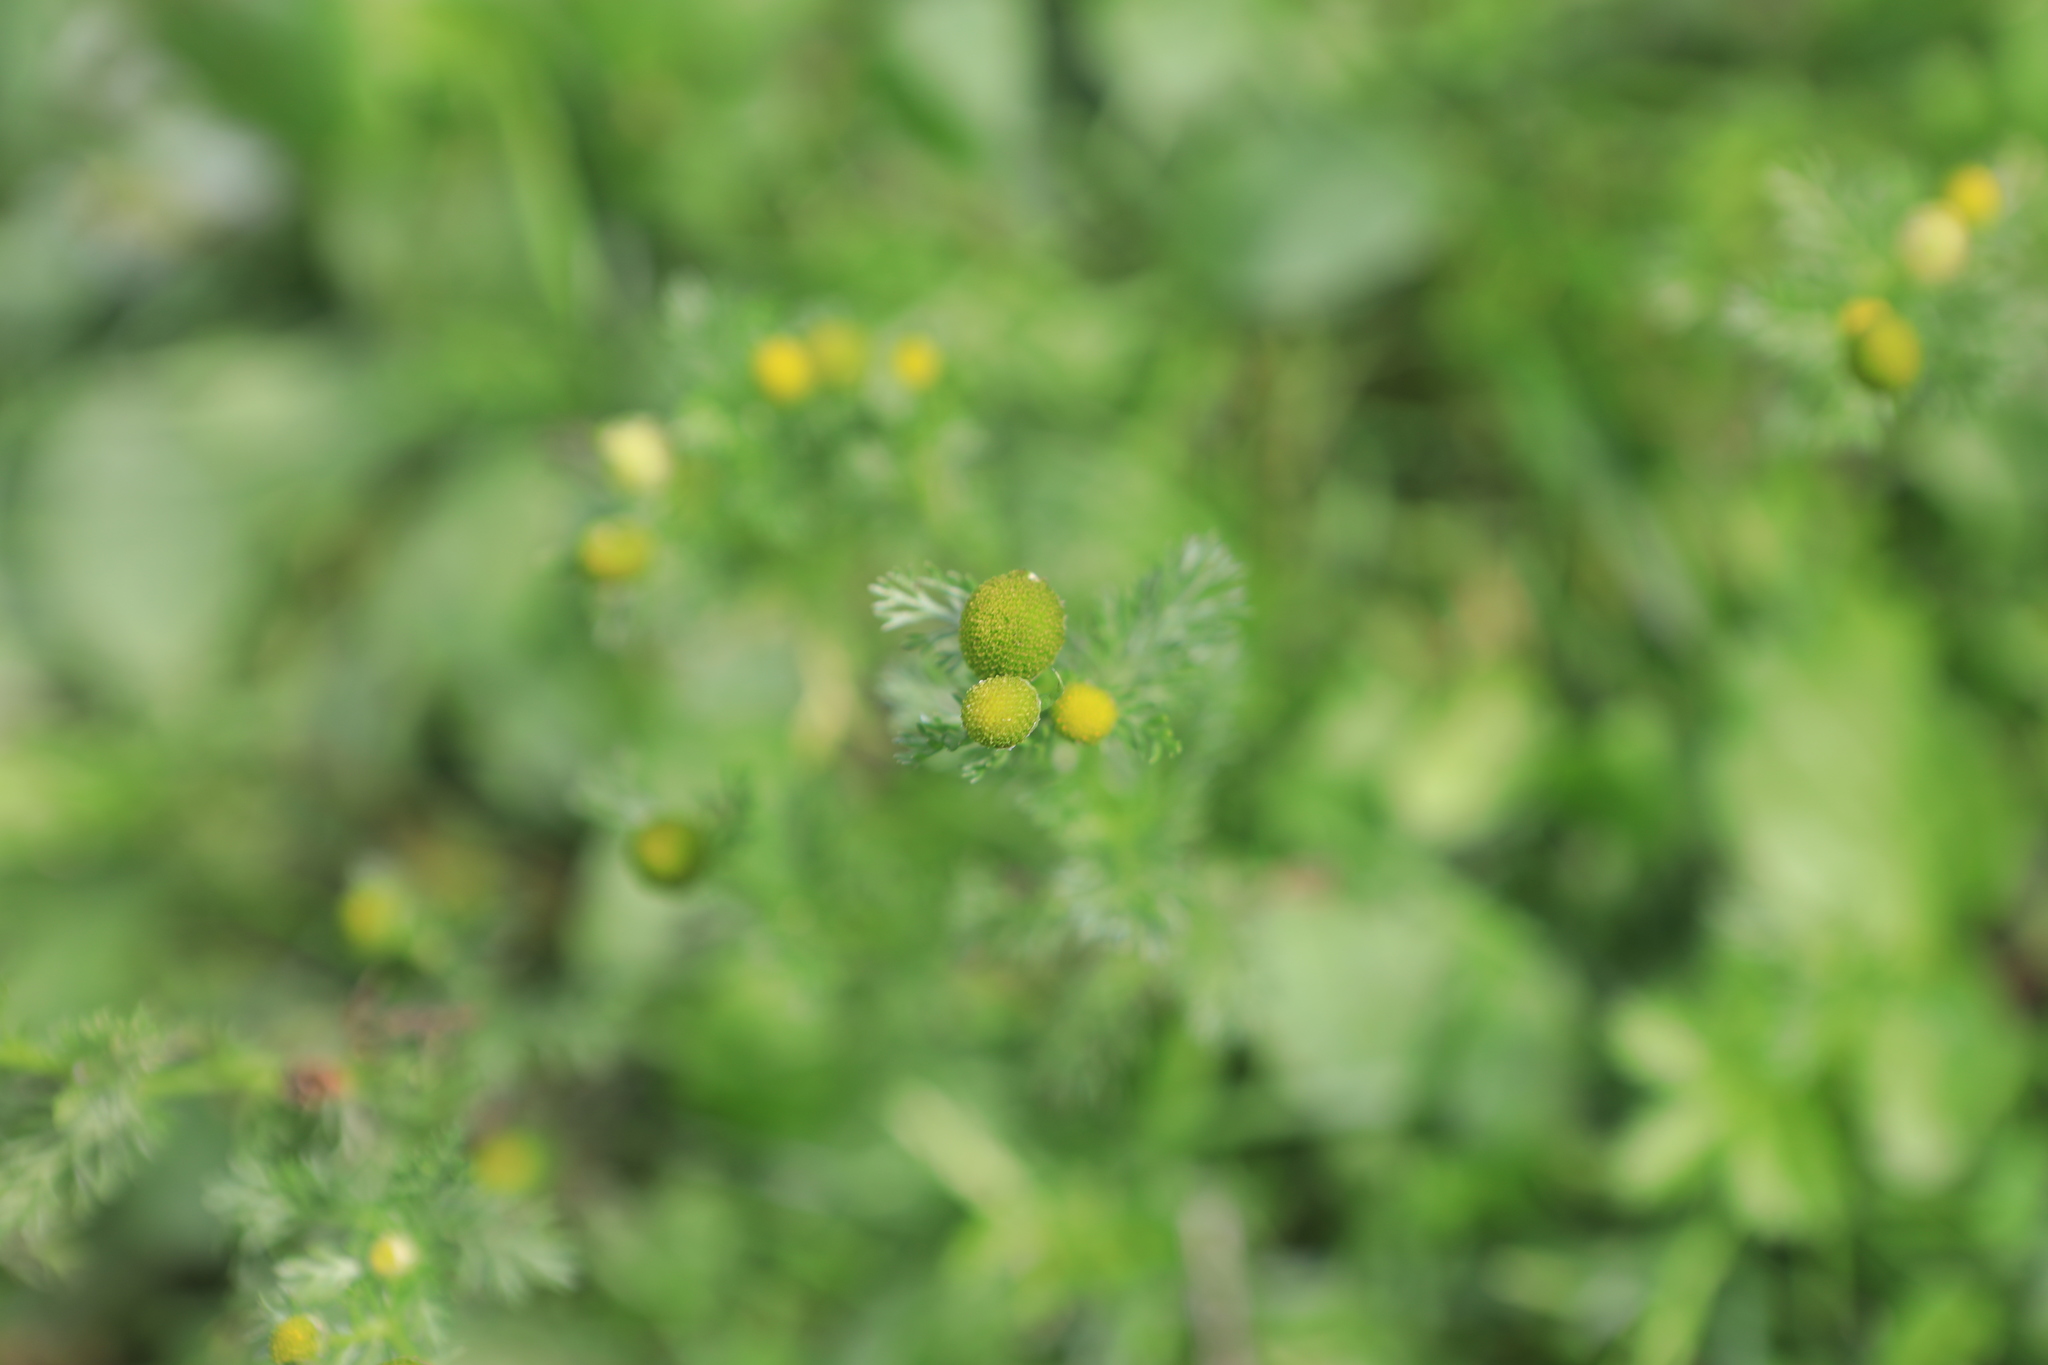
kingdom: Plantae
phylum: Tracheophyta
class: Magnoliopsida
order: Asterales
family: Asteraceae
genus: Matricaria
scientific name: Matricaria discoidea
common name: Disc mayweed
